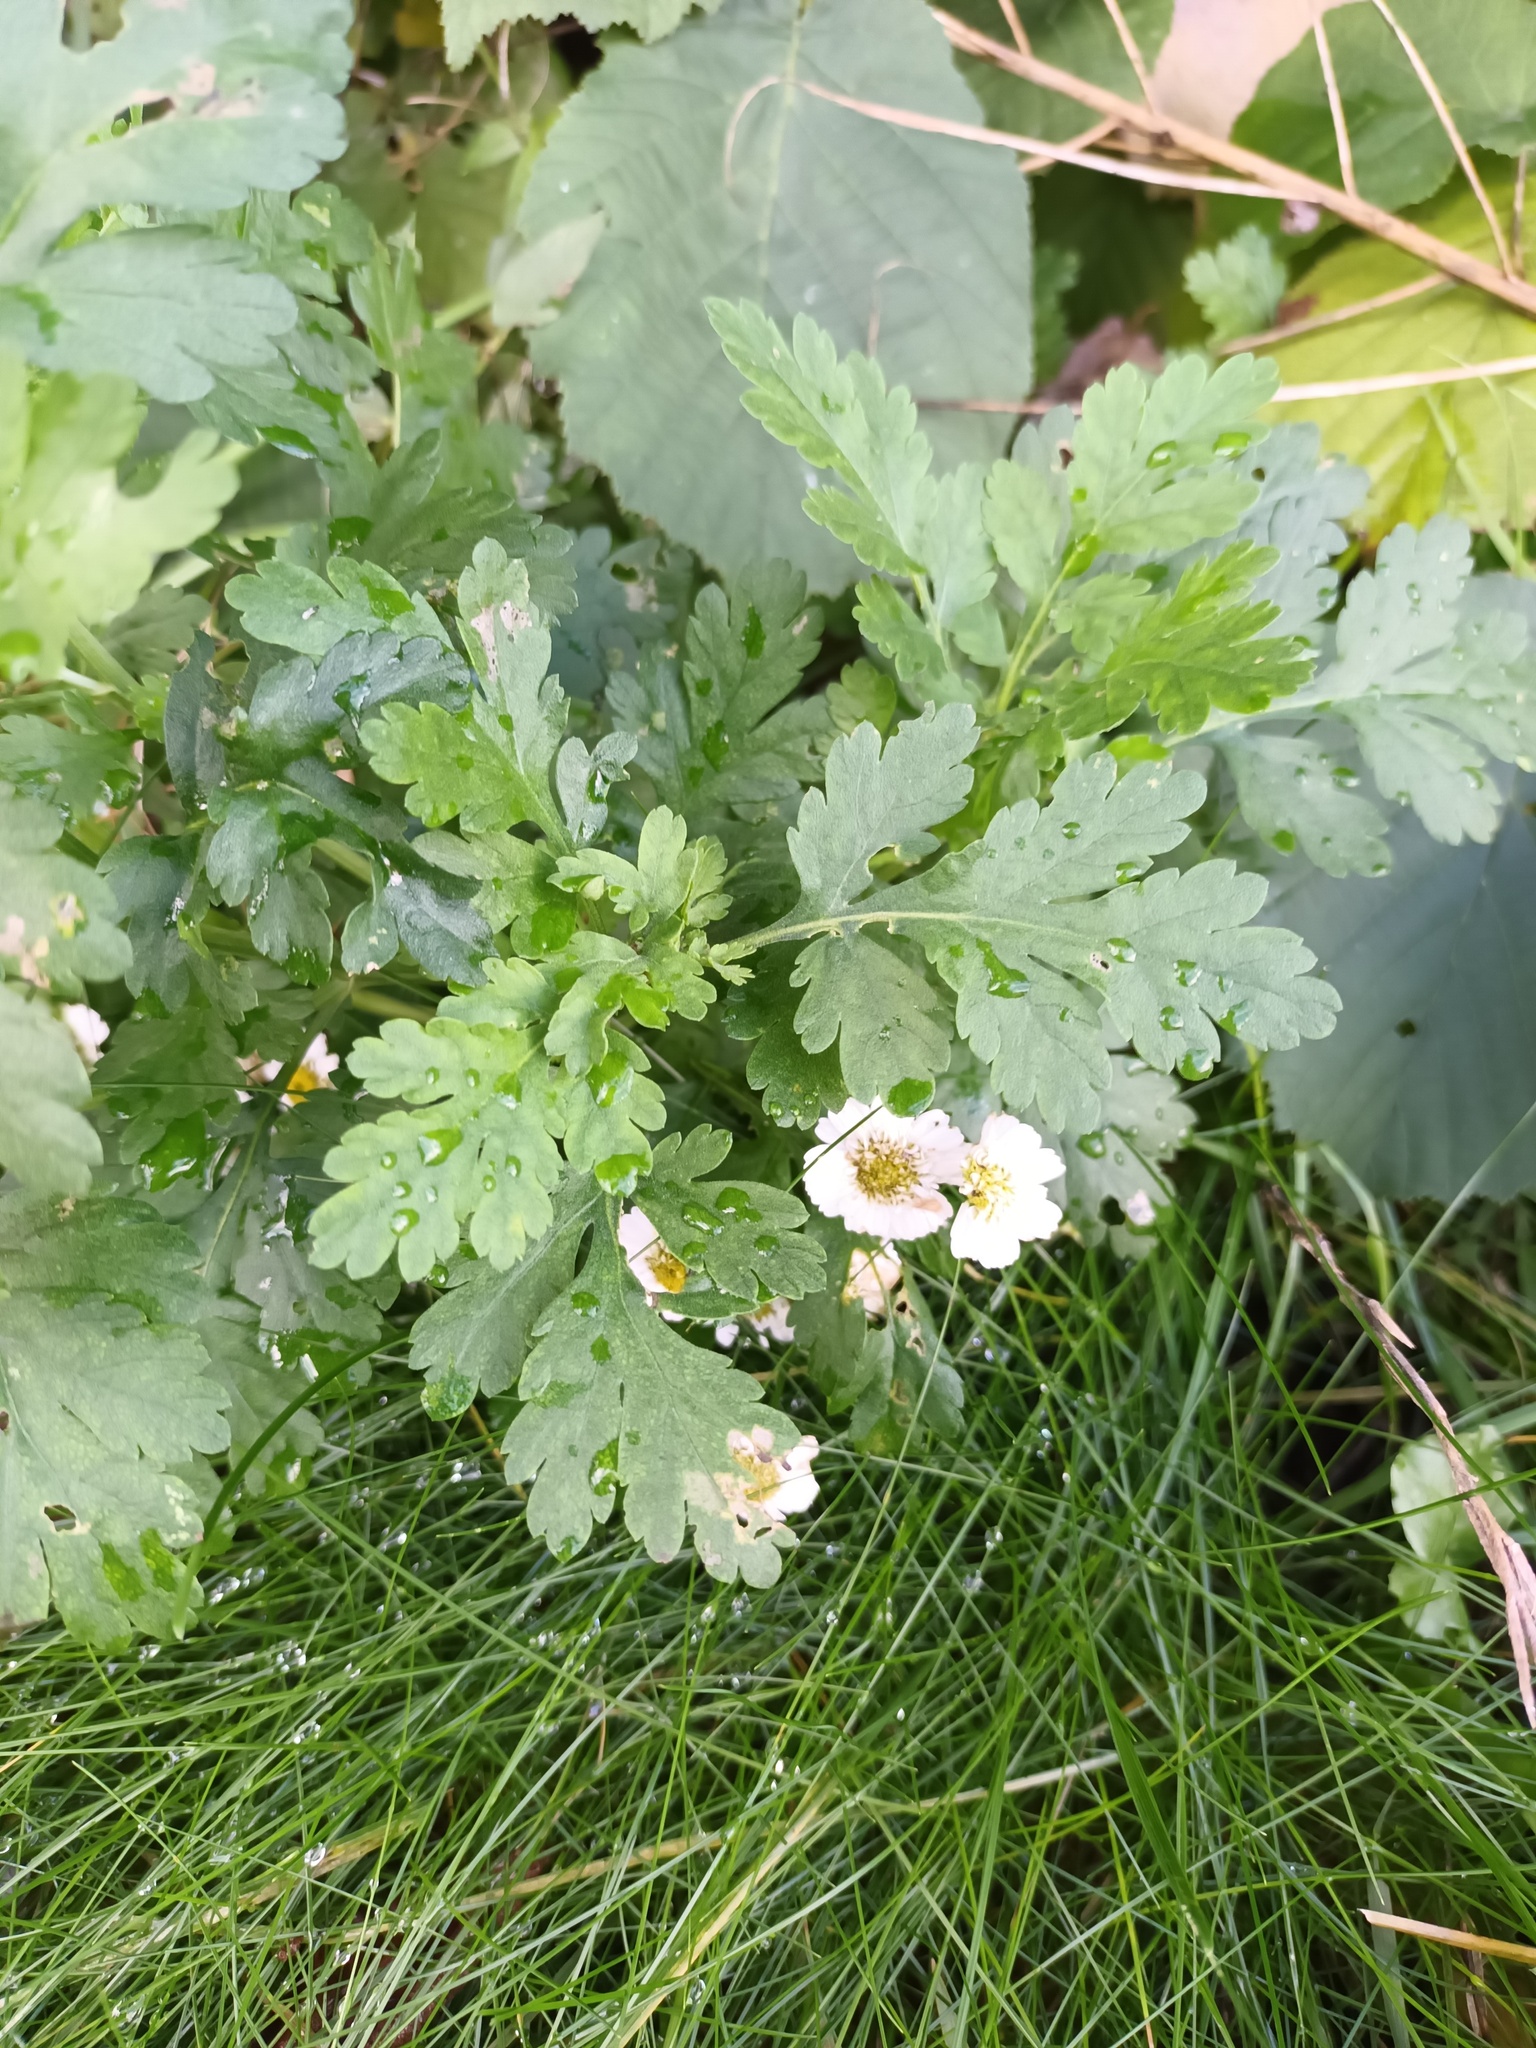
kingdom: Plantae
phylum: Tracheophyta
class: Magnoliopsida
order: Asterales
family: Asteraceae
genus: Tanacetum
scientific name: Tanacetum parthenium
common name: Feverfew
